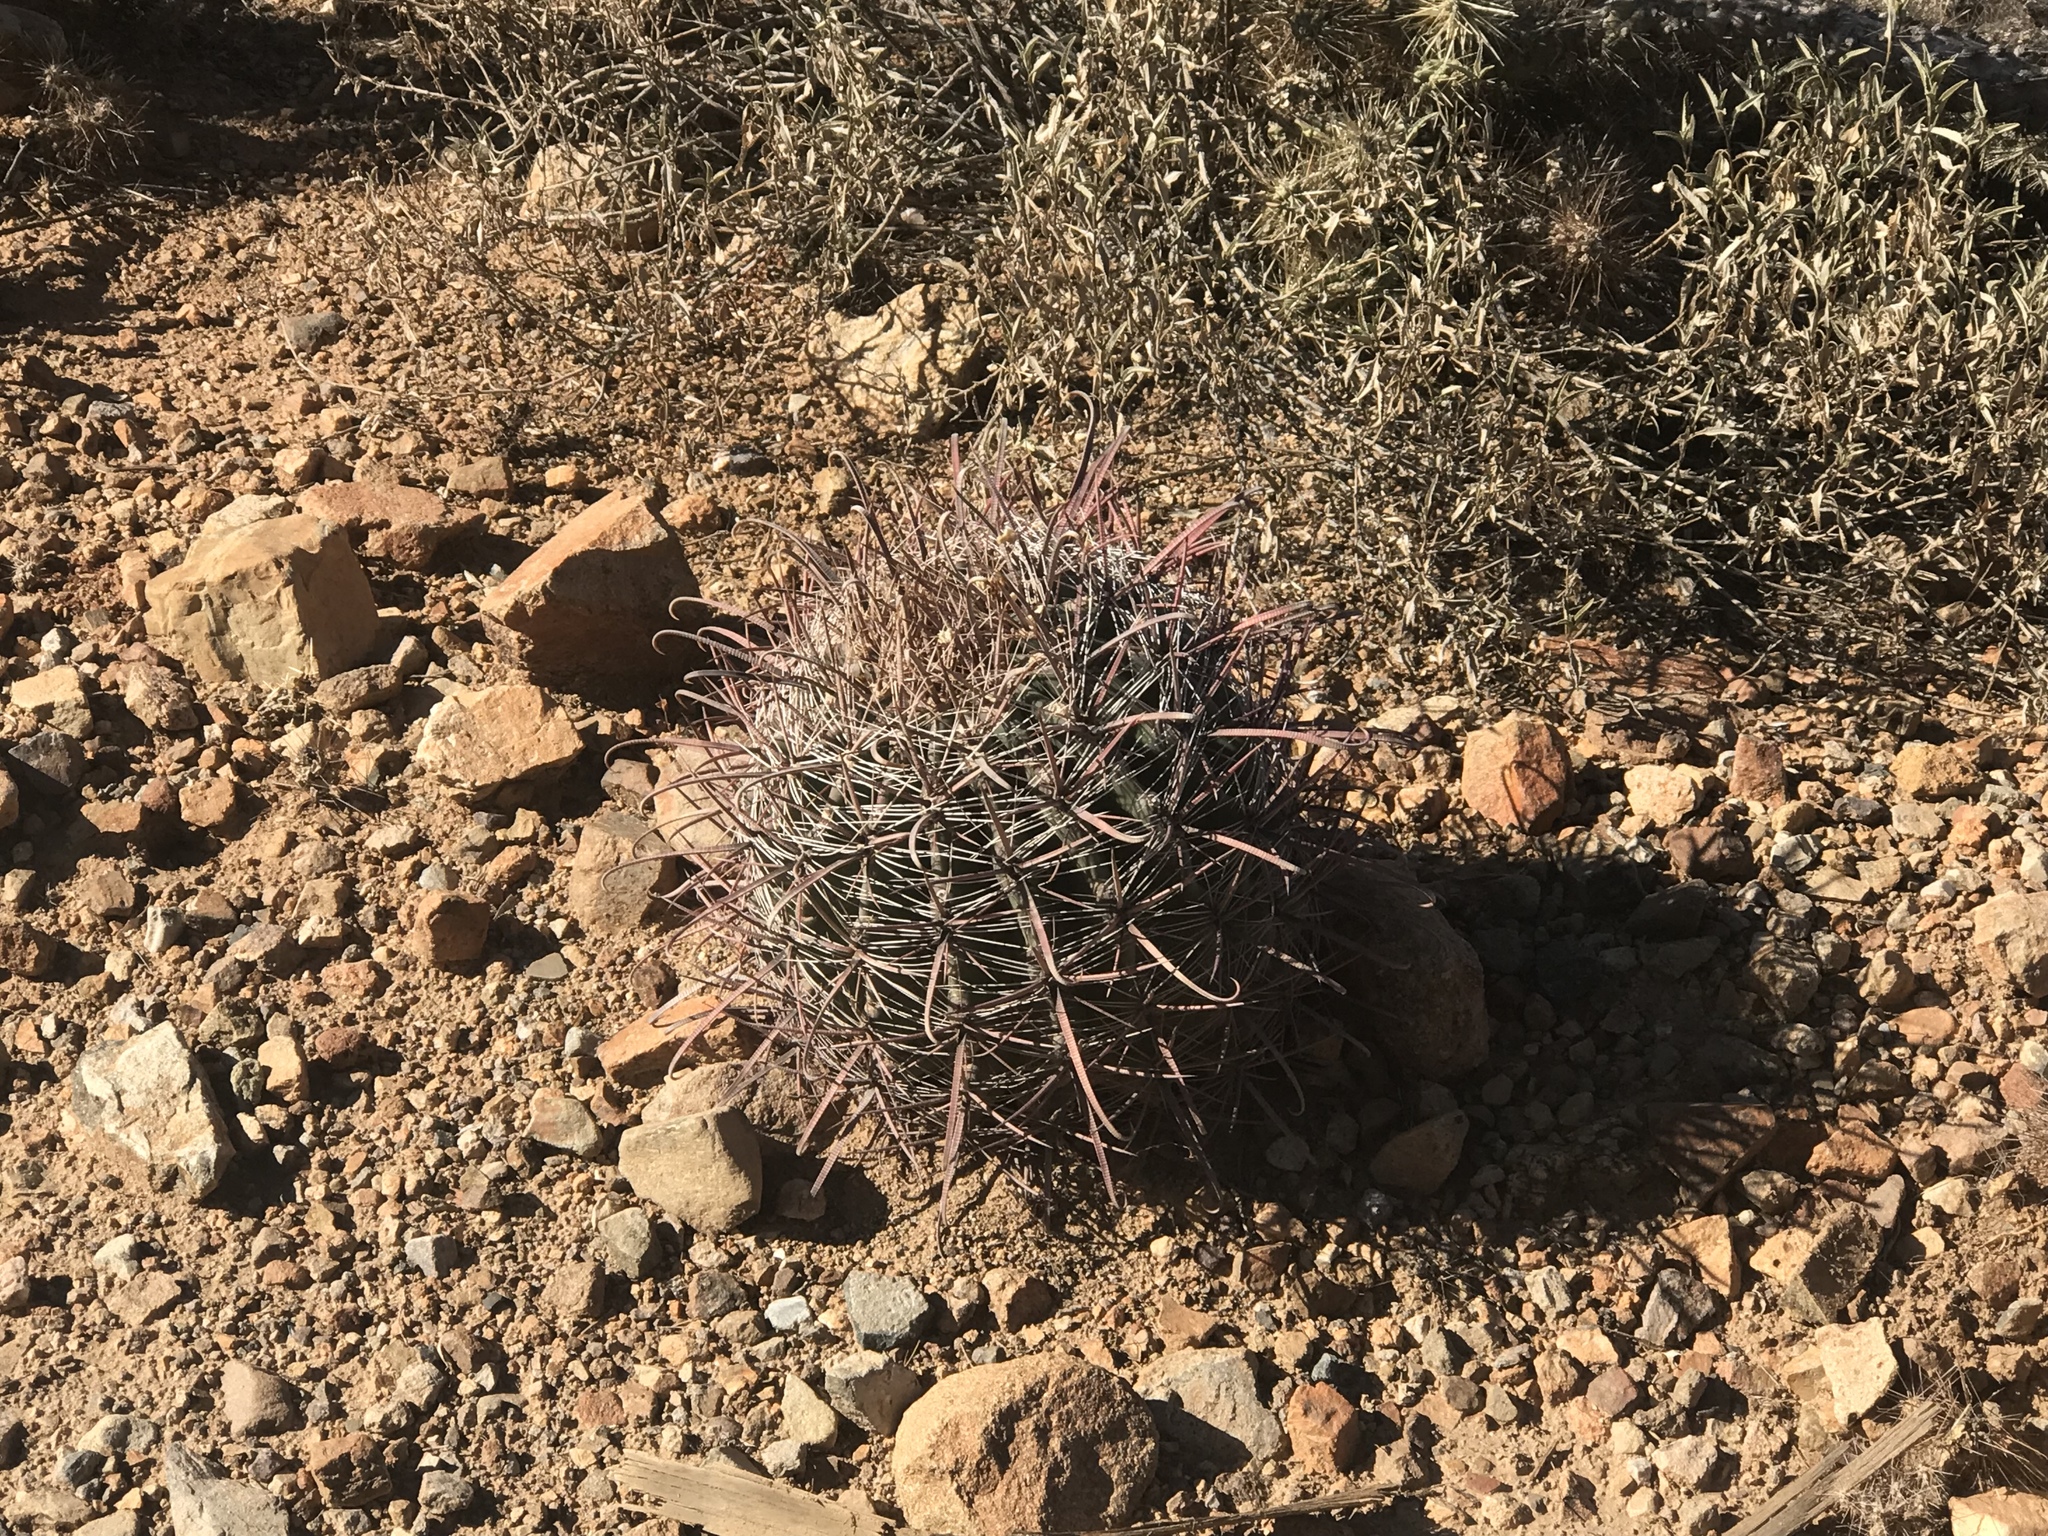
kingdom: Plantae
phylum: Tracheophyta
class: Magnoliopsida
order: Caryophyllales
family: Cactaceae
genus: Ferocactus
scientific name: Ferocactus wislizeni
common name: Candy barrel cactus
